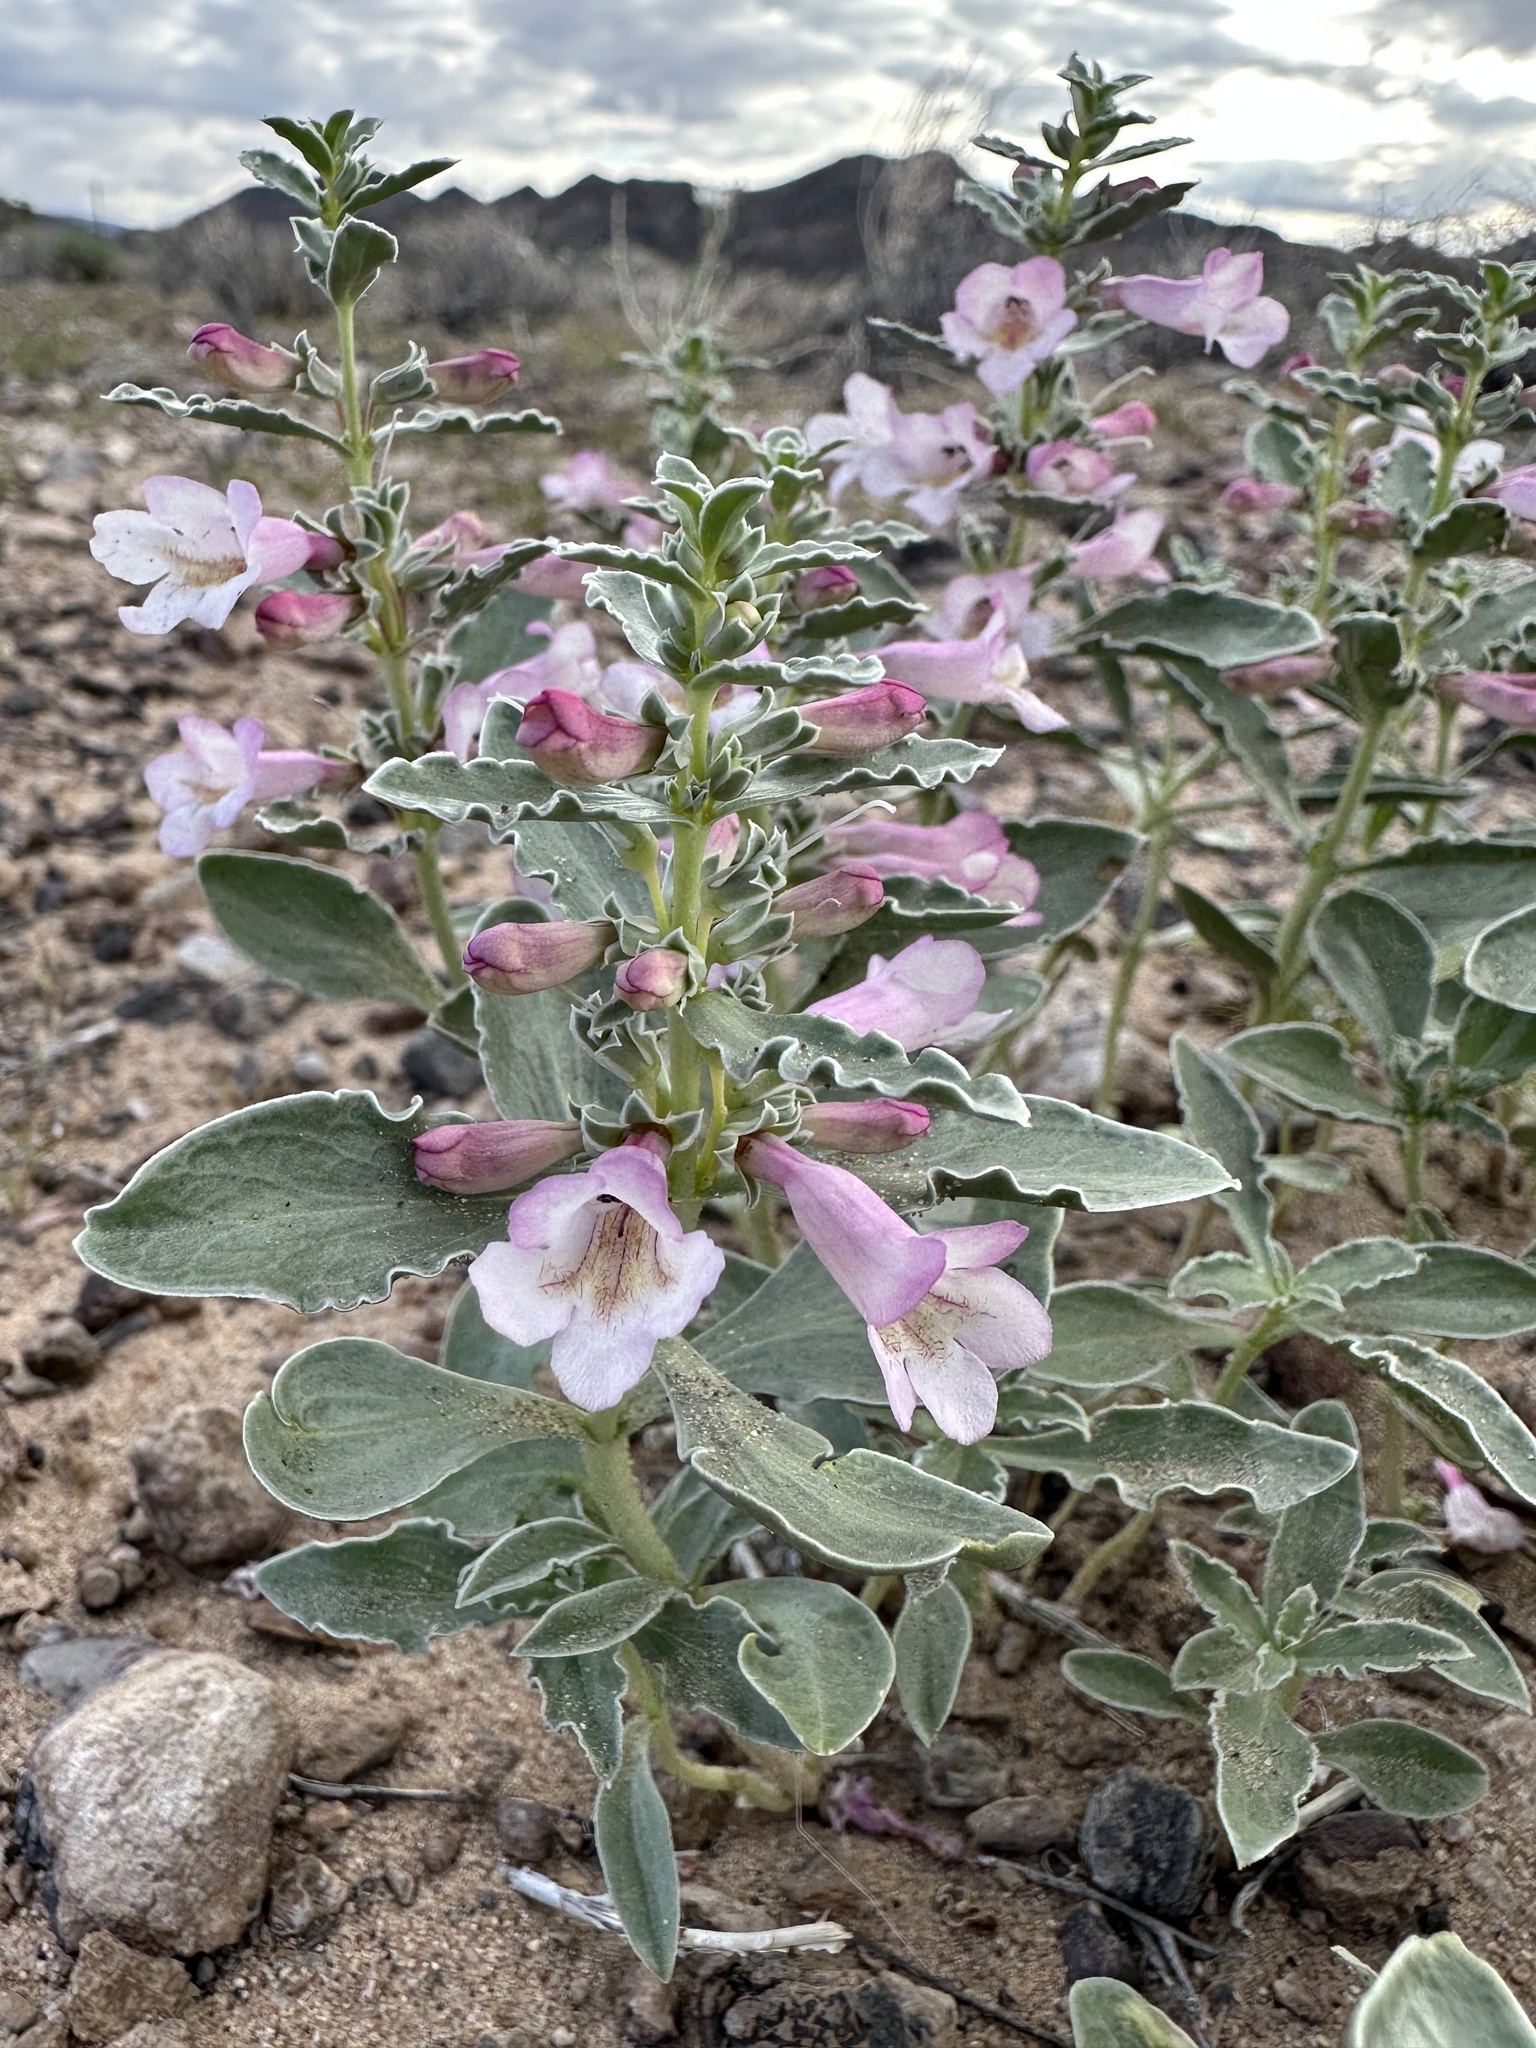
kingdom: Plantae
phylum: Tracheophyta
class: Magnoliopsida
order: Lamiales
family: Plantaginaceae
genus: Penstemon
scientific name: Penstemon albomarginatus
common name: White-margin beardtongue
